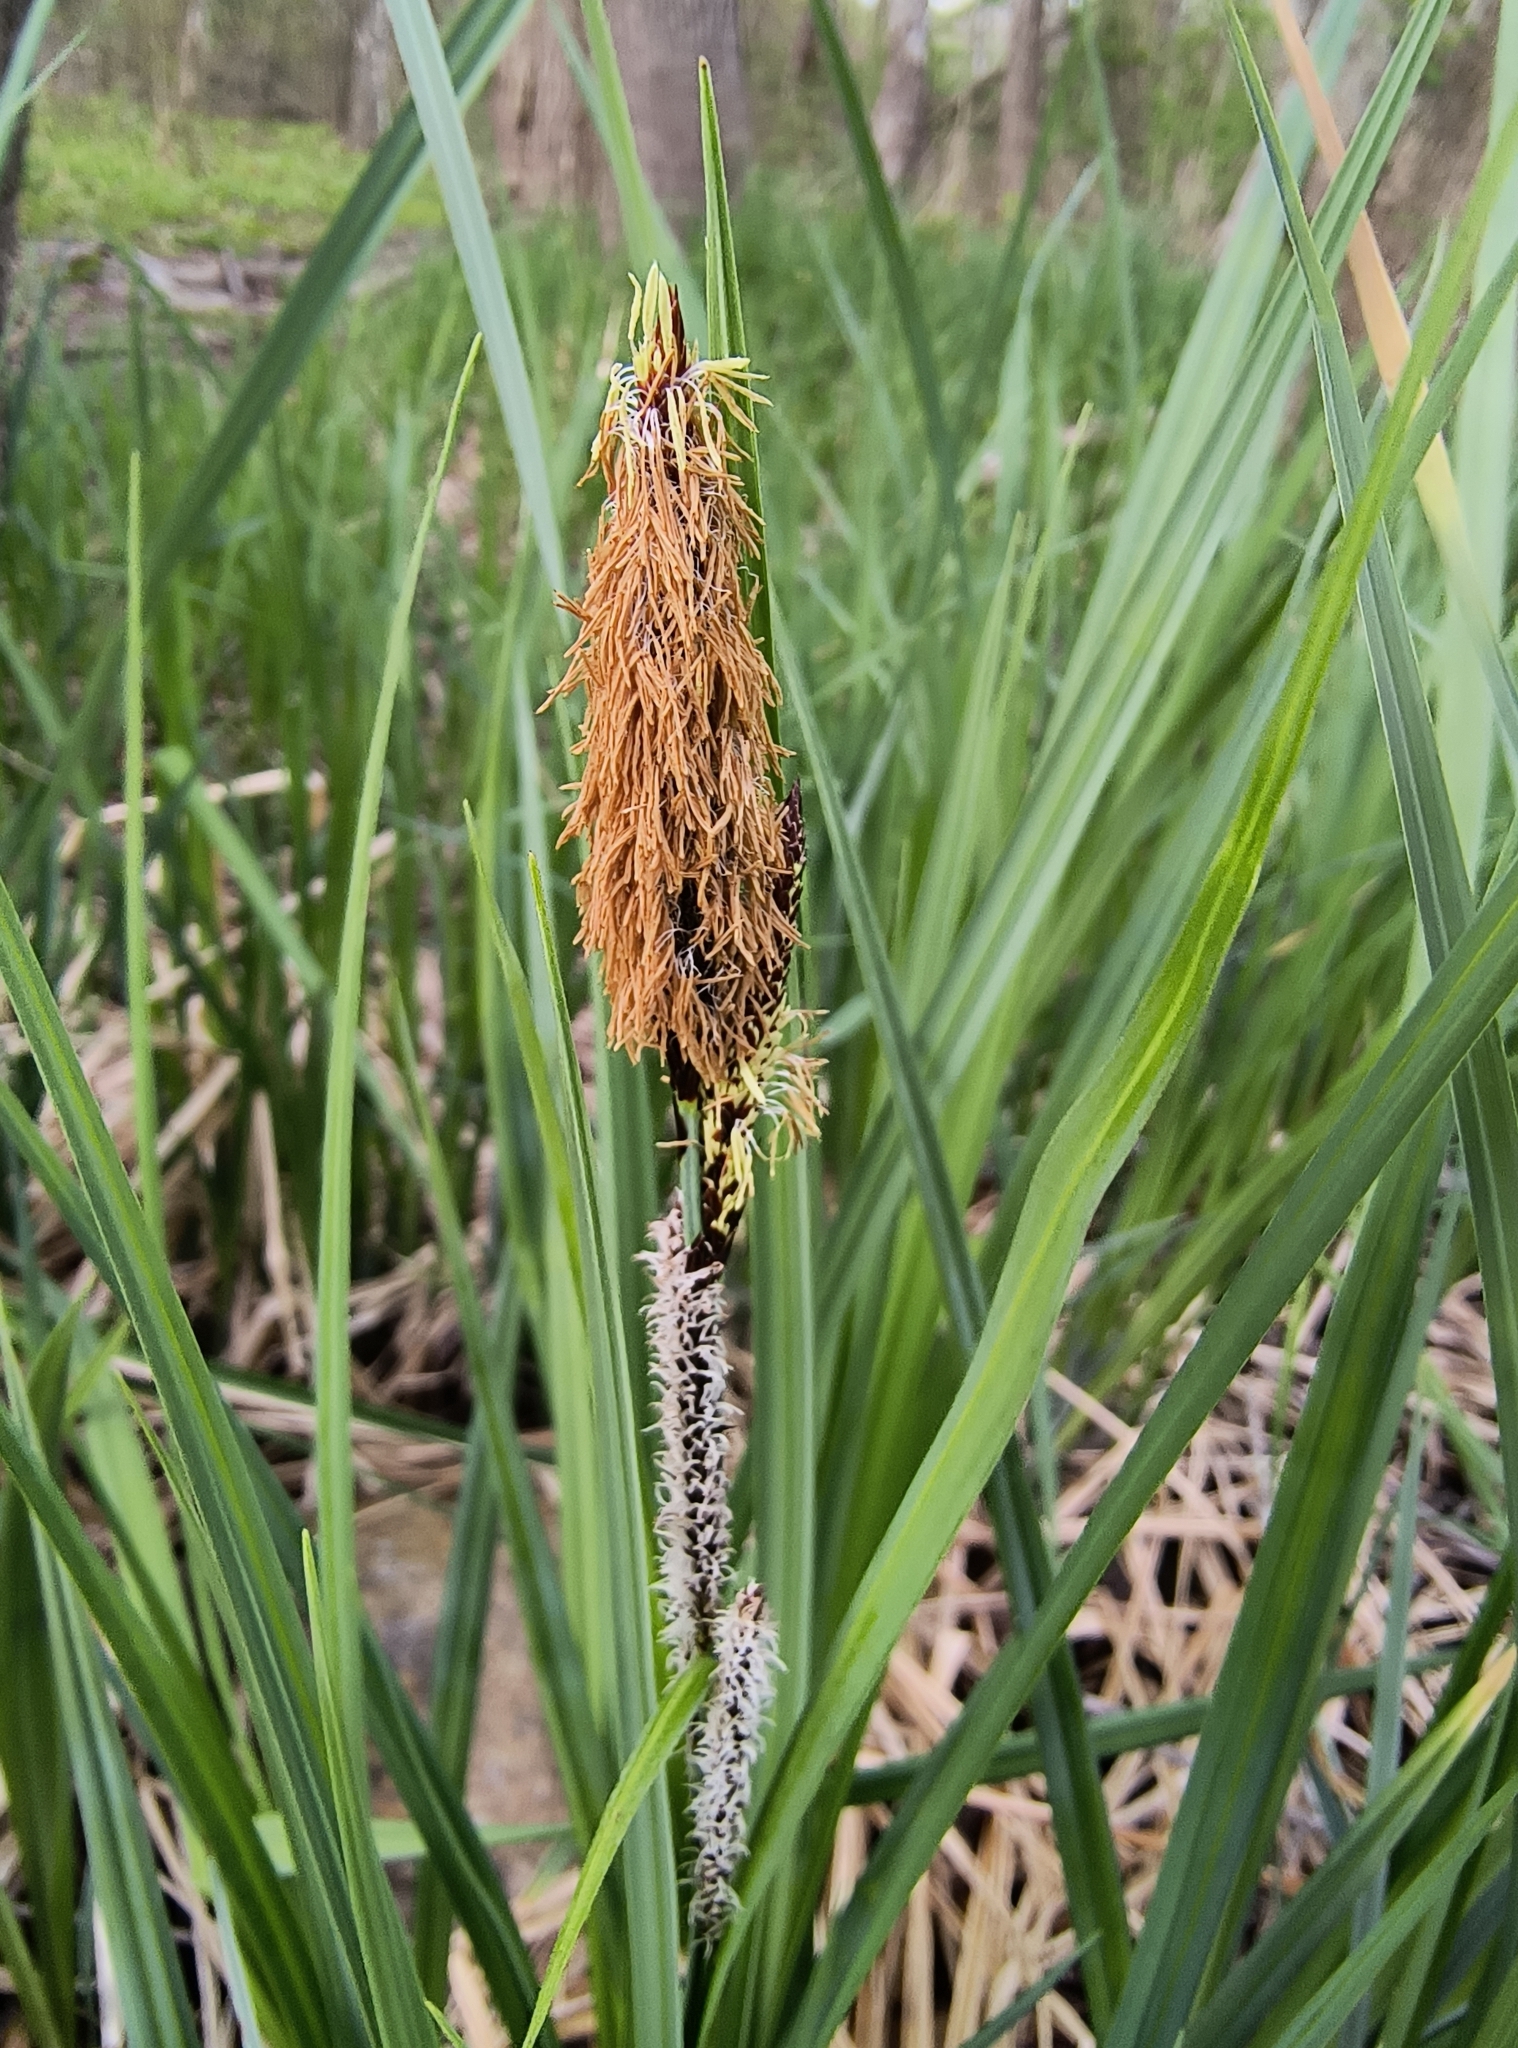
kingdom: Plantae
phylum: Tracheophyta
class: Liliopsida
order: Poales
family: Cyperaceae
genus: Carex
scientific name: Carex stricta
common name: Hummock sedge
